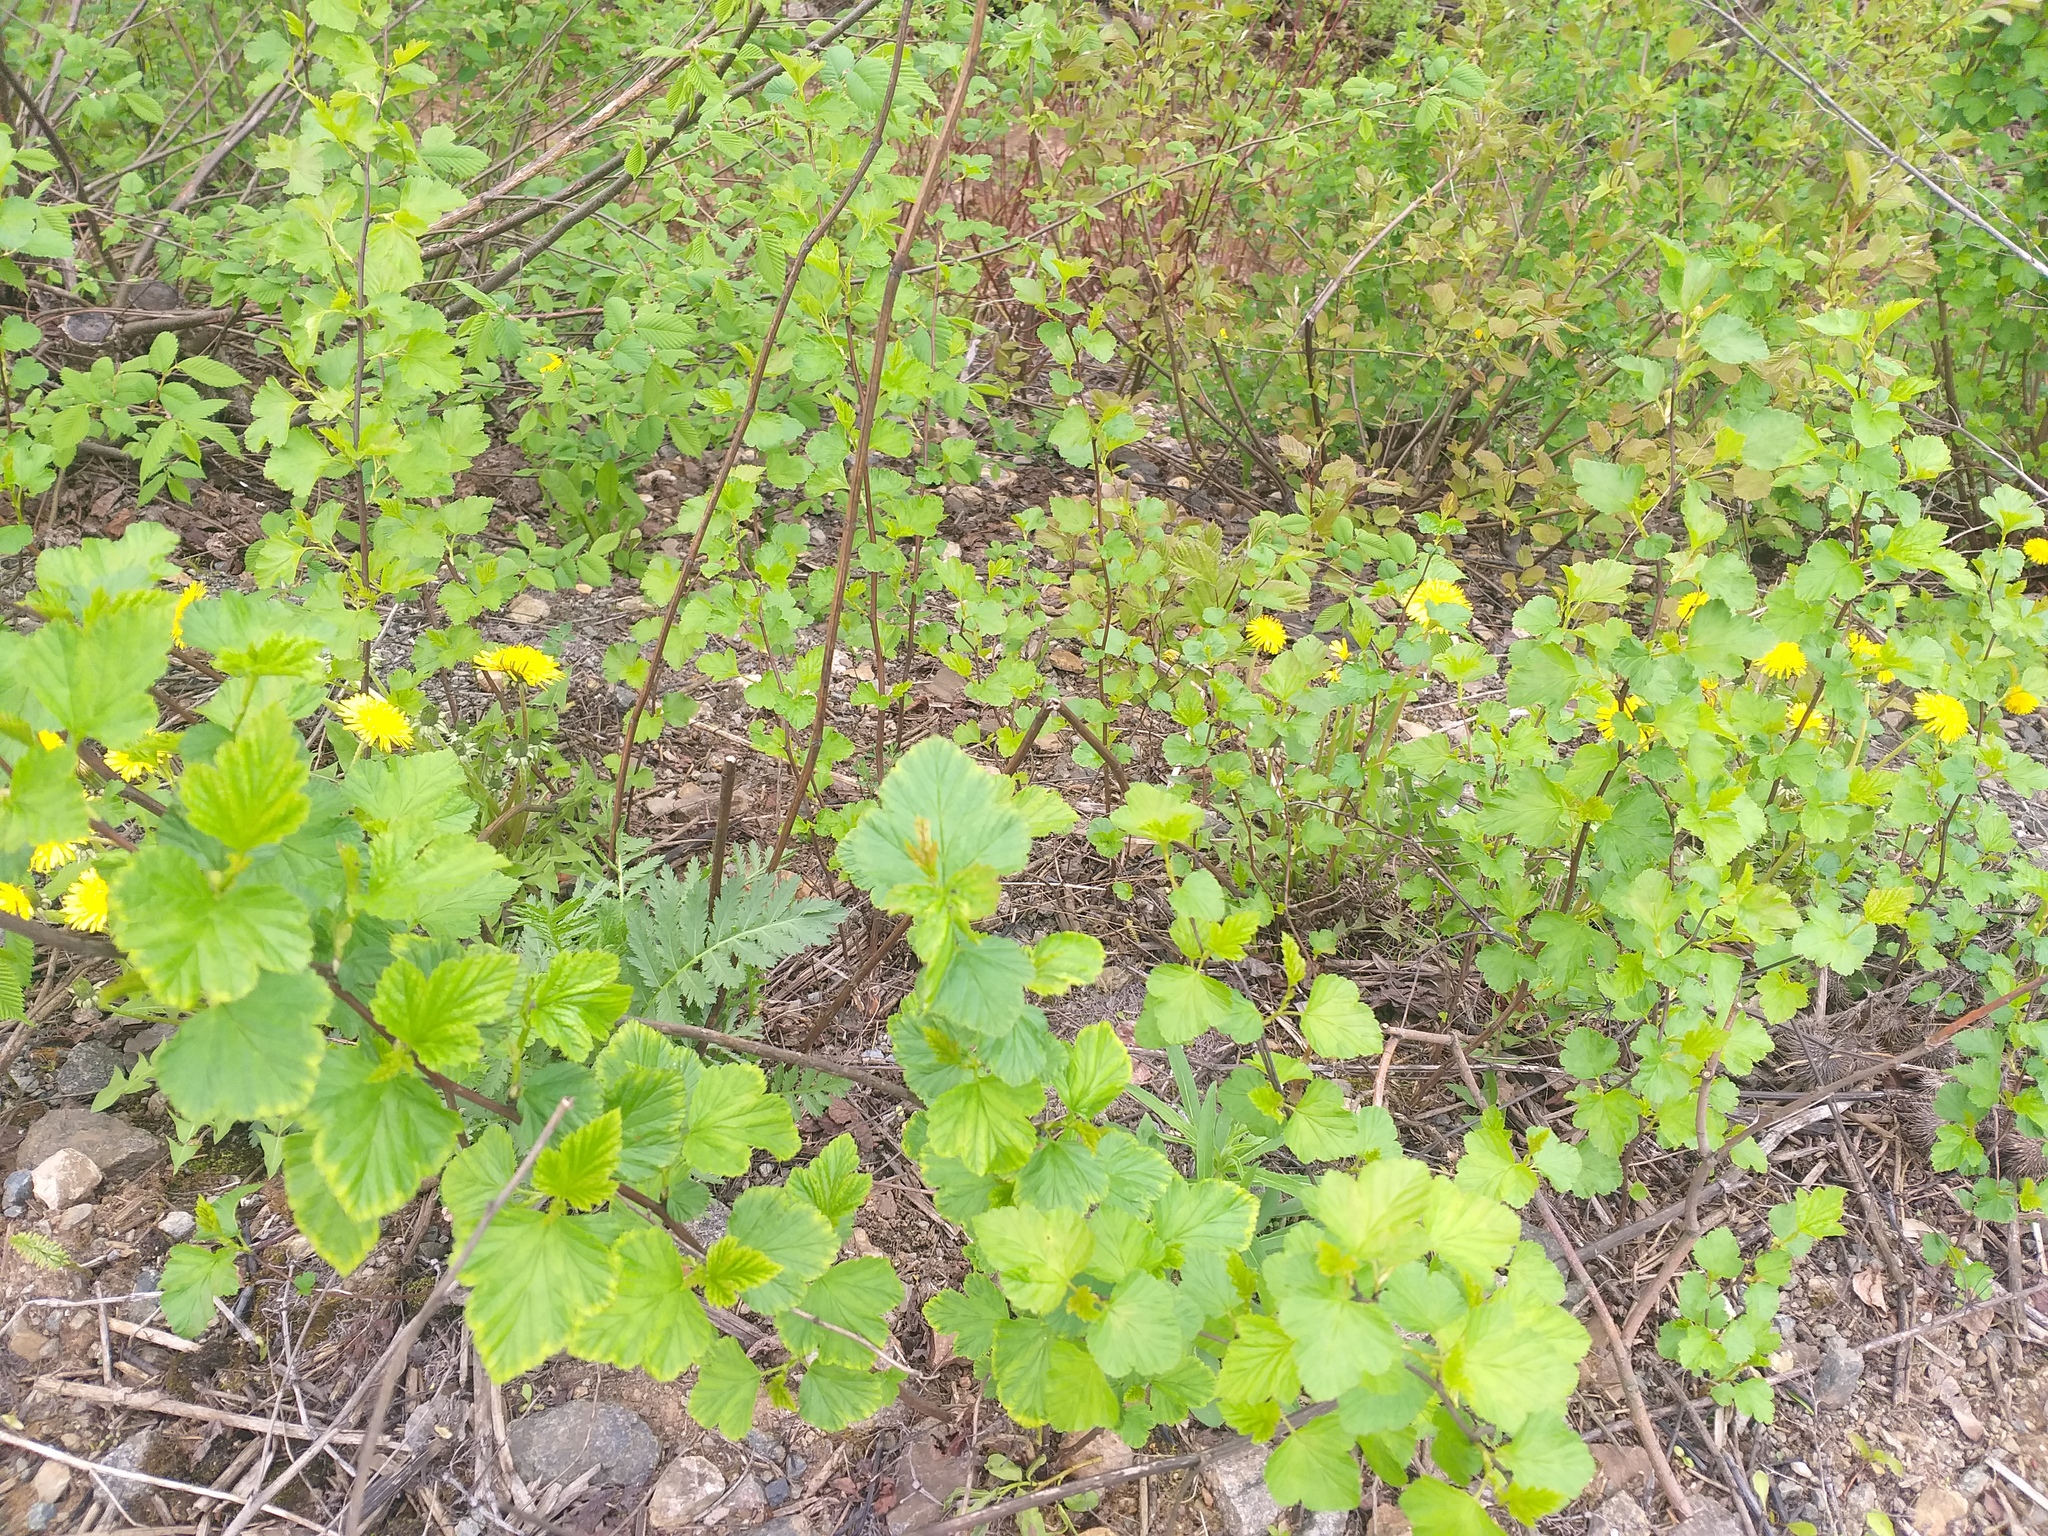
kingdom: Plantae
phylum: Tracheophyta
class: Magnoliopsida
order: Rosales
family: Rosaceae
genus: Physocarpus
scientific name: Physocarpus opulifolius
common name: Ninebark
